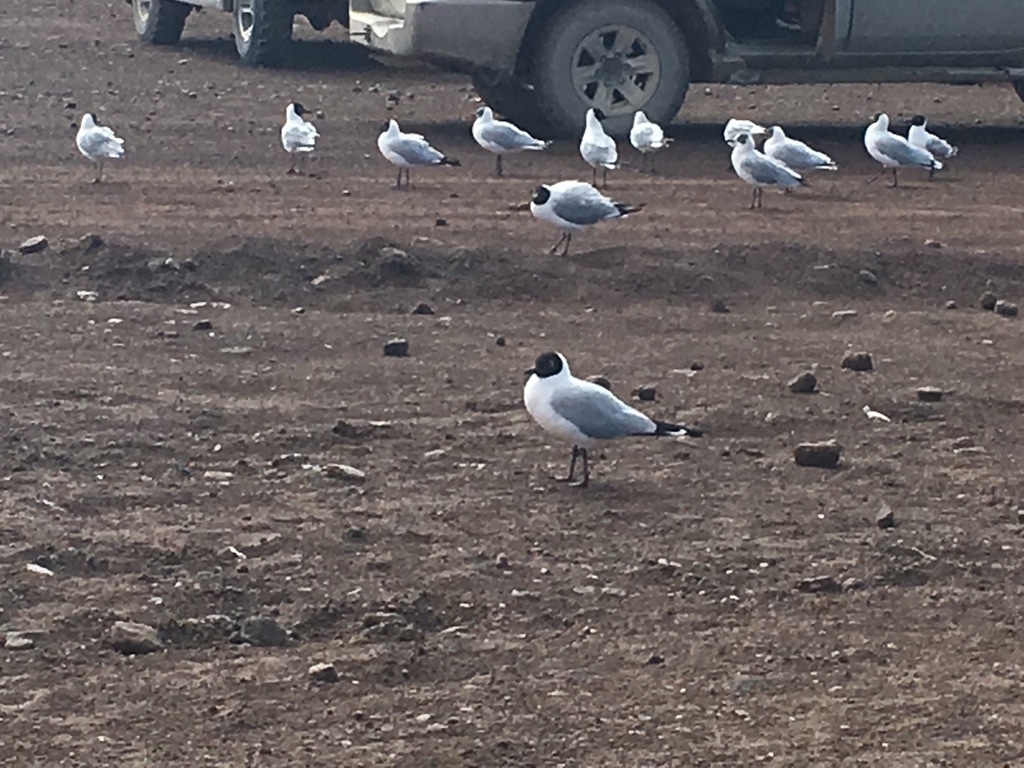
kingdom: Animalia
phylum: Chordata
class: Aves
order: Charadriiformes
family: Laridae
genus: Chroicocephalus
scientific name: Chroicocephalus serranus
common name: Andean gull
